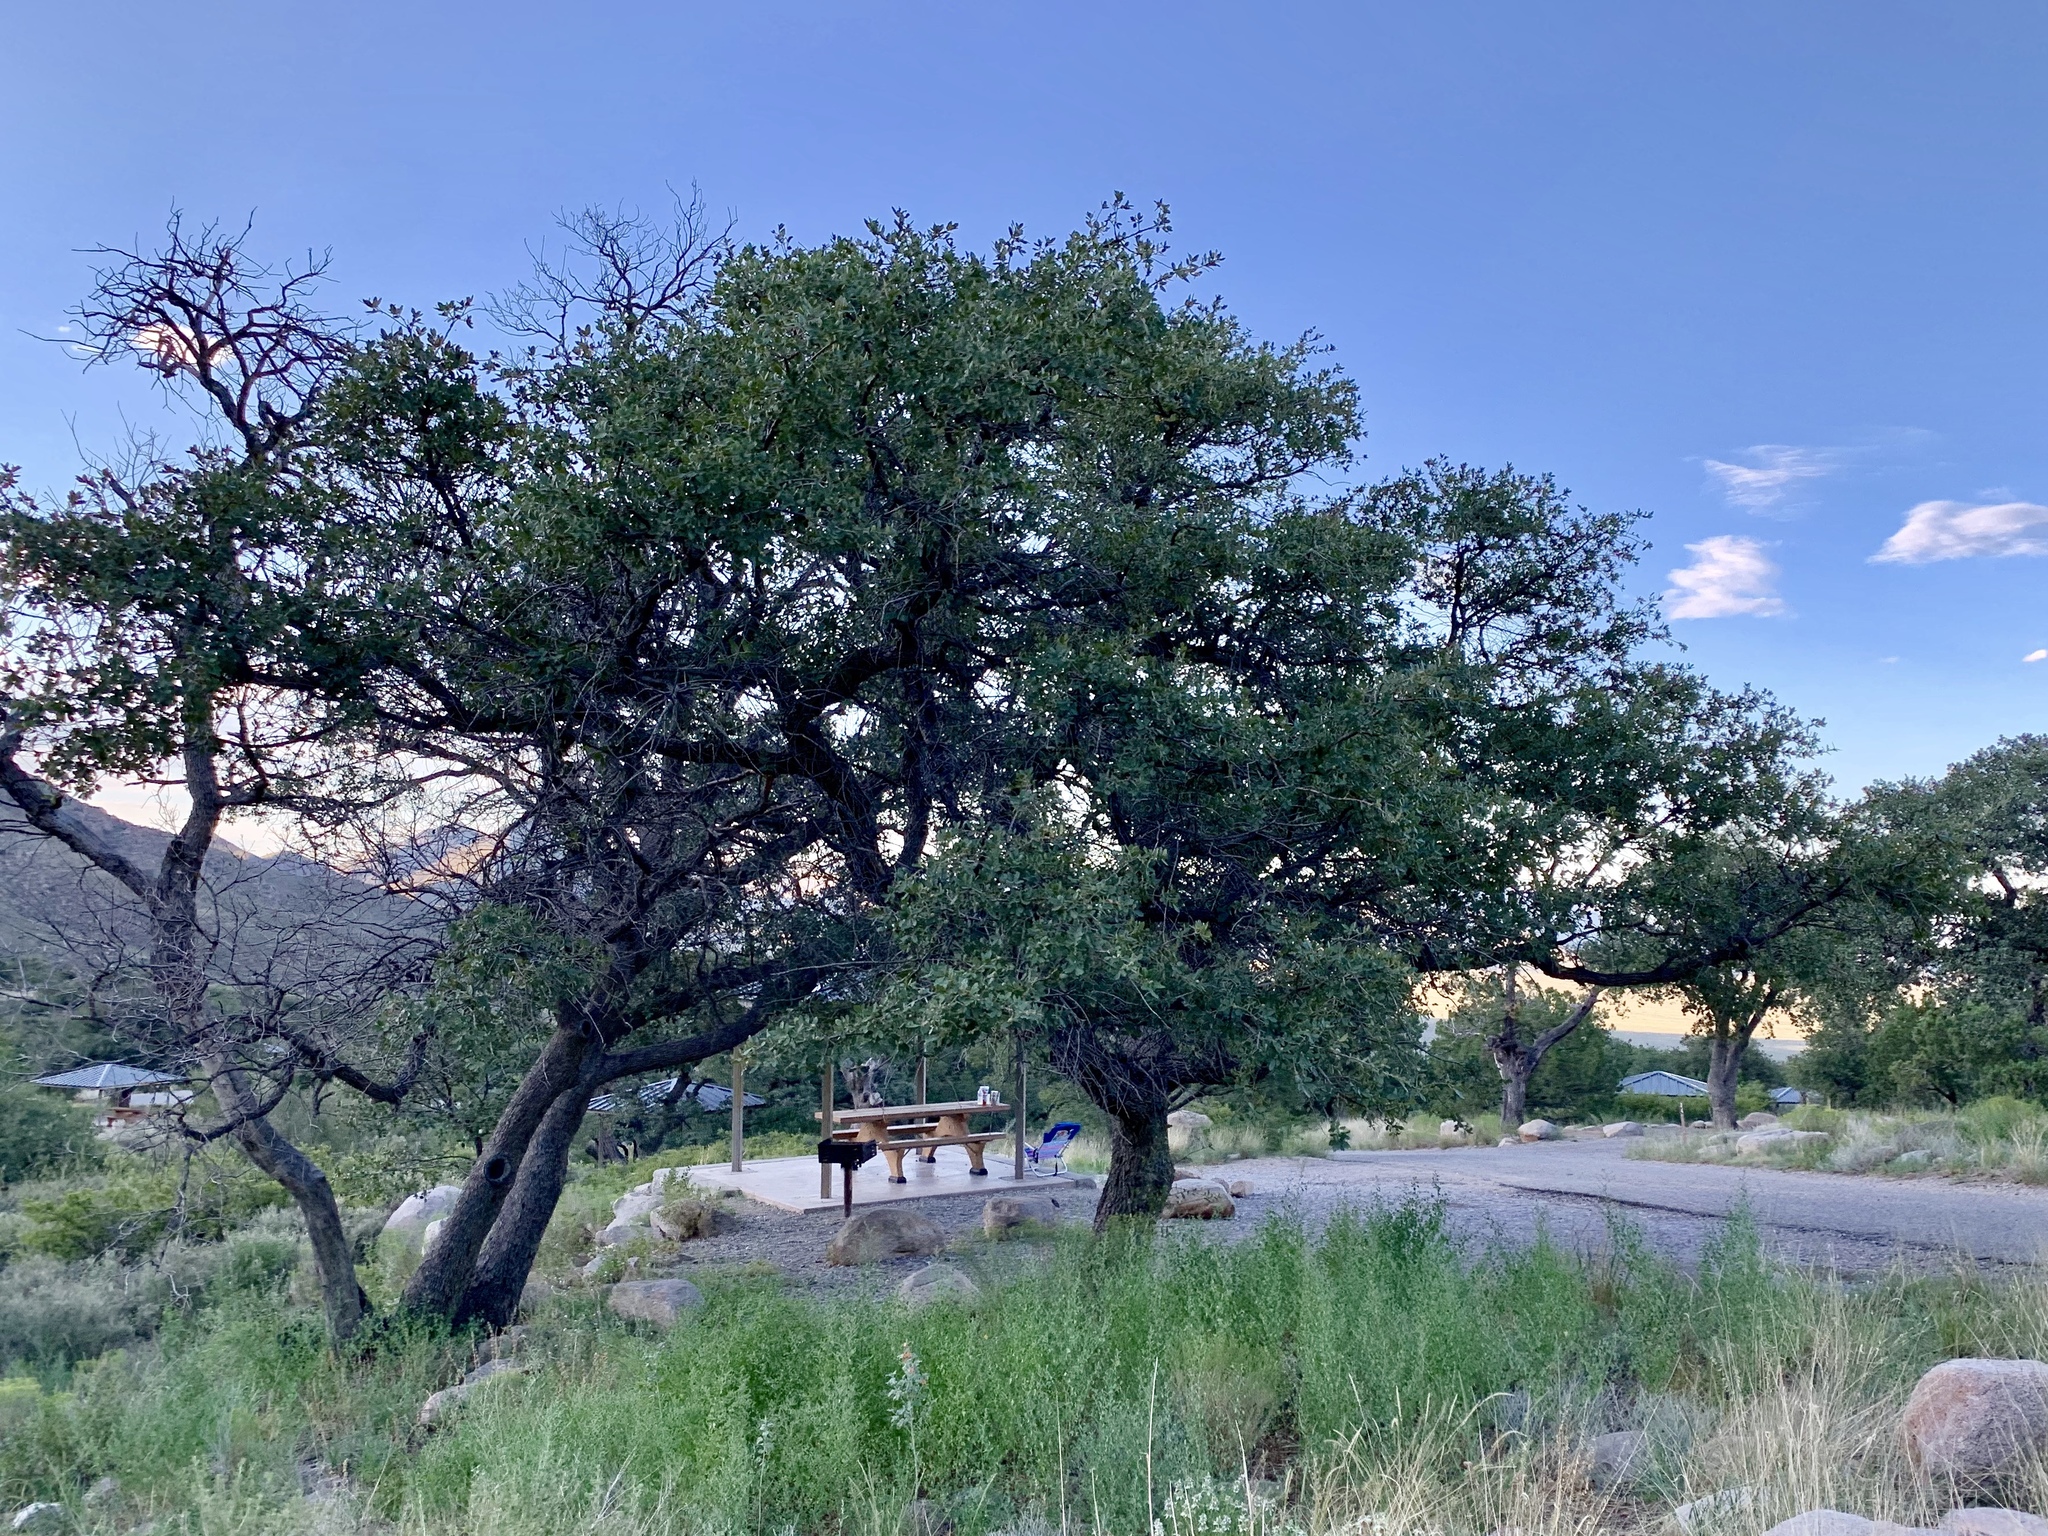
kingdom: Plantae
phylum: Tracheophyta
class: Magnoliopsida
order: Fagales
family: Fagaceae
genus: Quercus
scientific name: Quercus arizonica
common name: Arizona white oak
